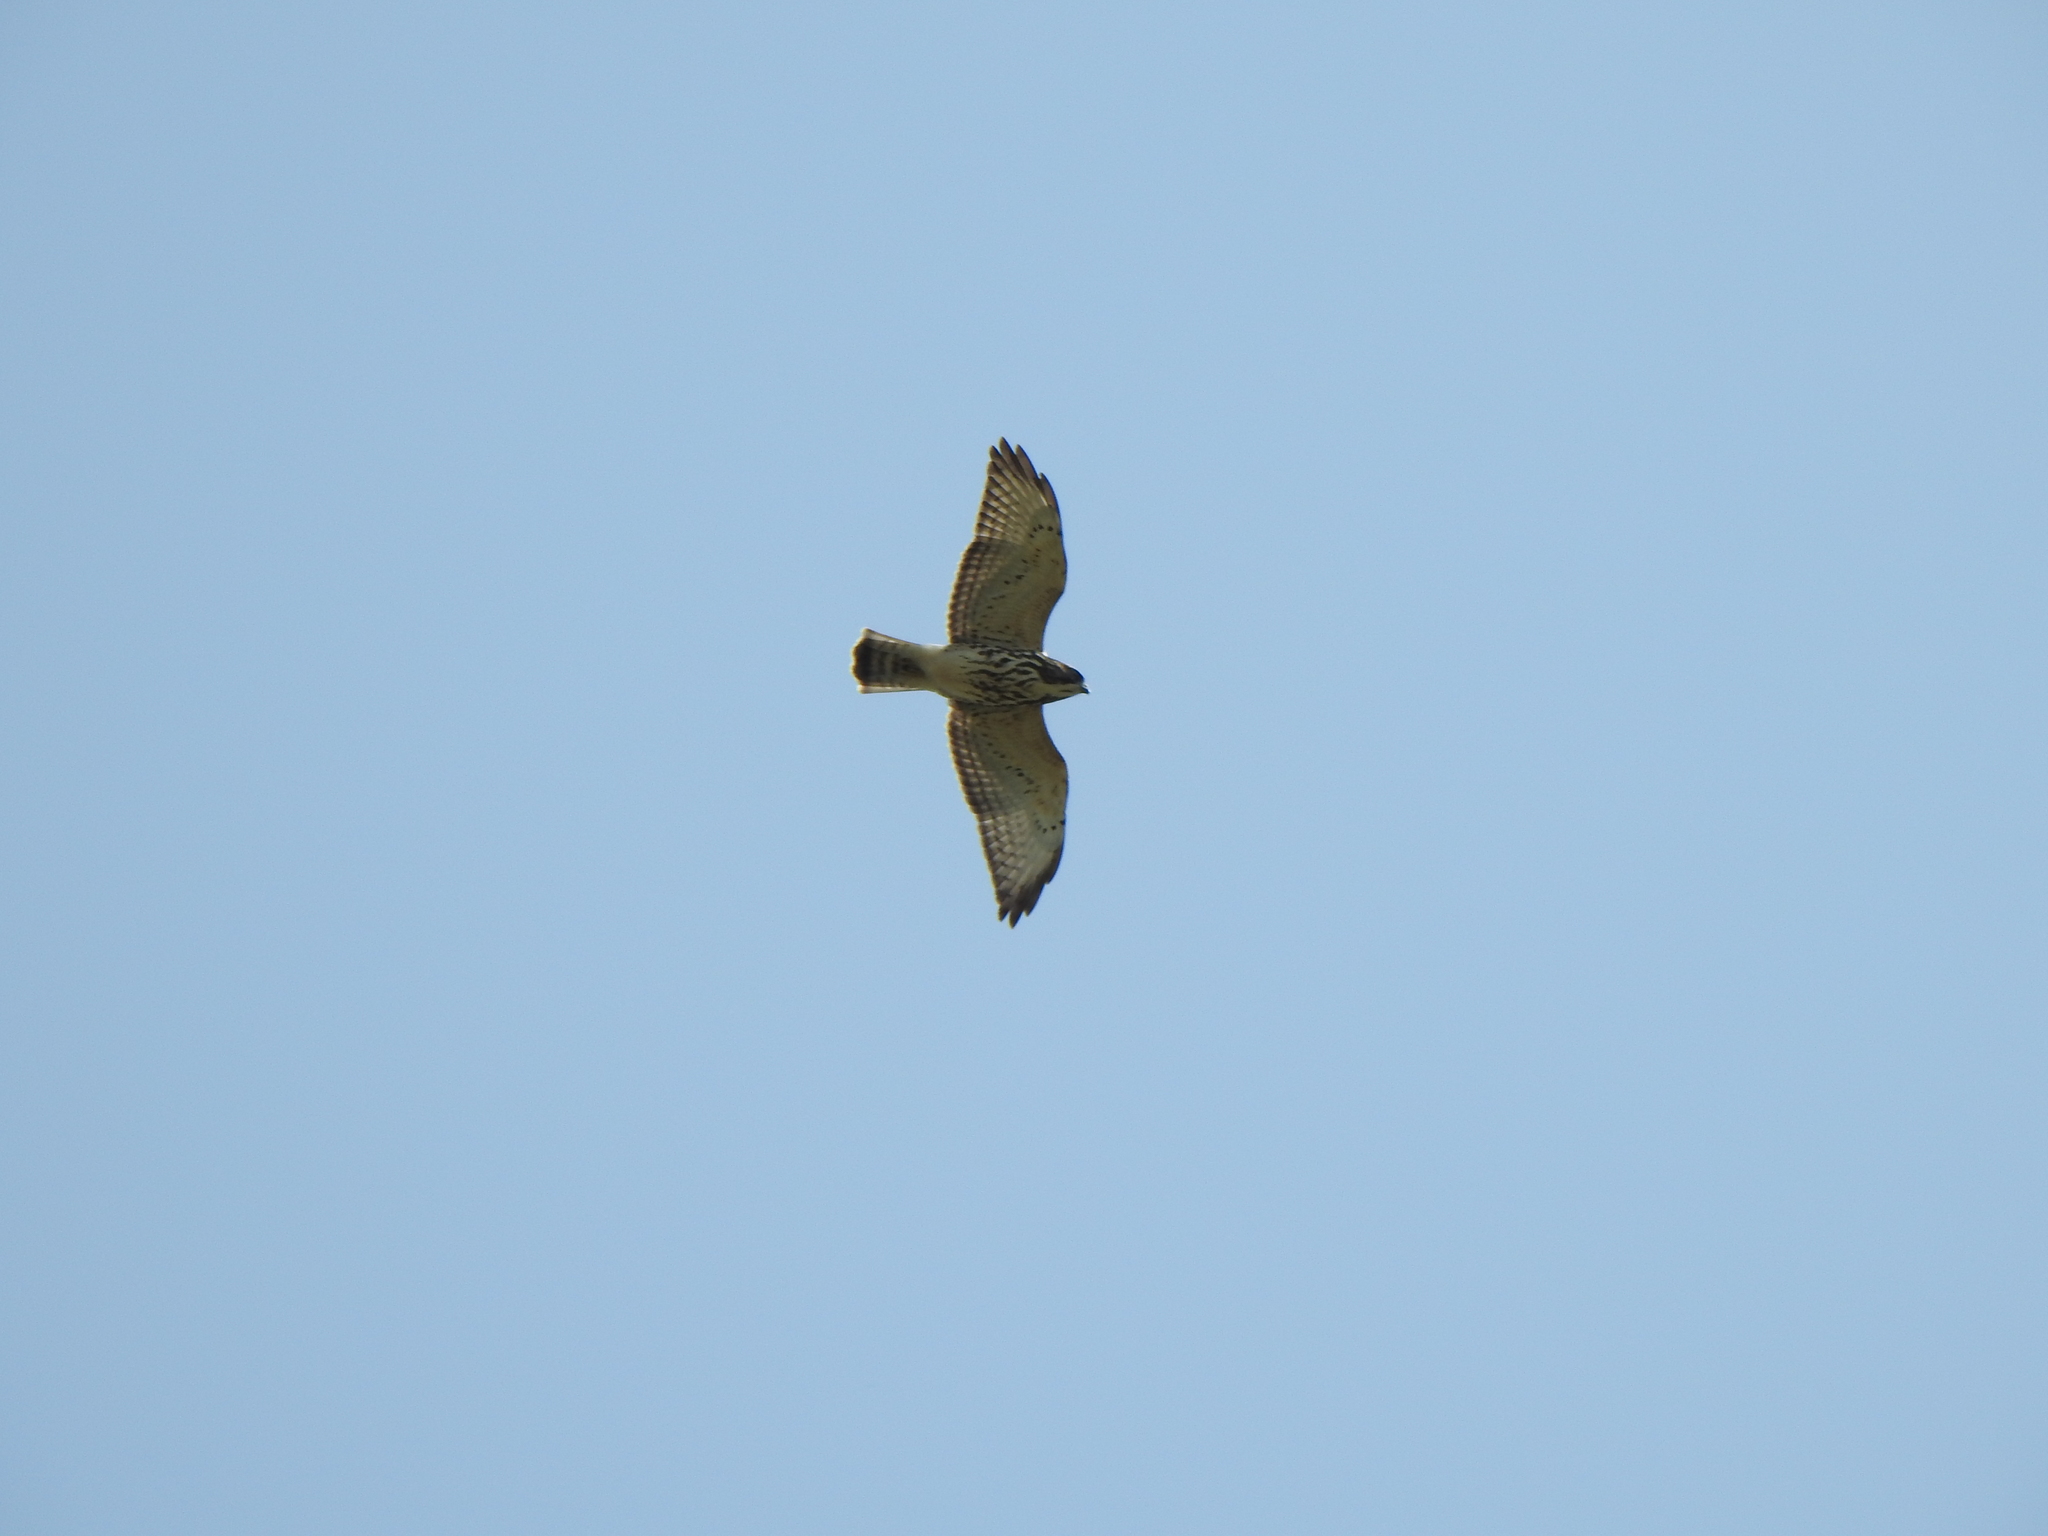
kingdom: Animalia
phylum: Chordata
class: Aves
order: Accipitriformes
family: Accipitridae
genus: Buteo
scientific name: Buteo platypterus
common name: Broad-winged hawk
